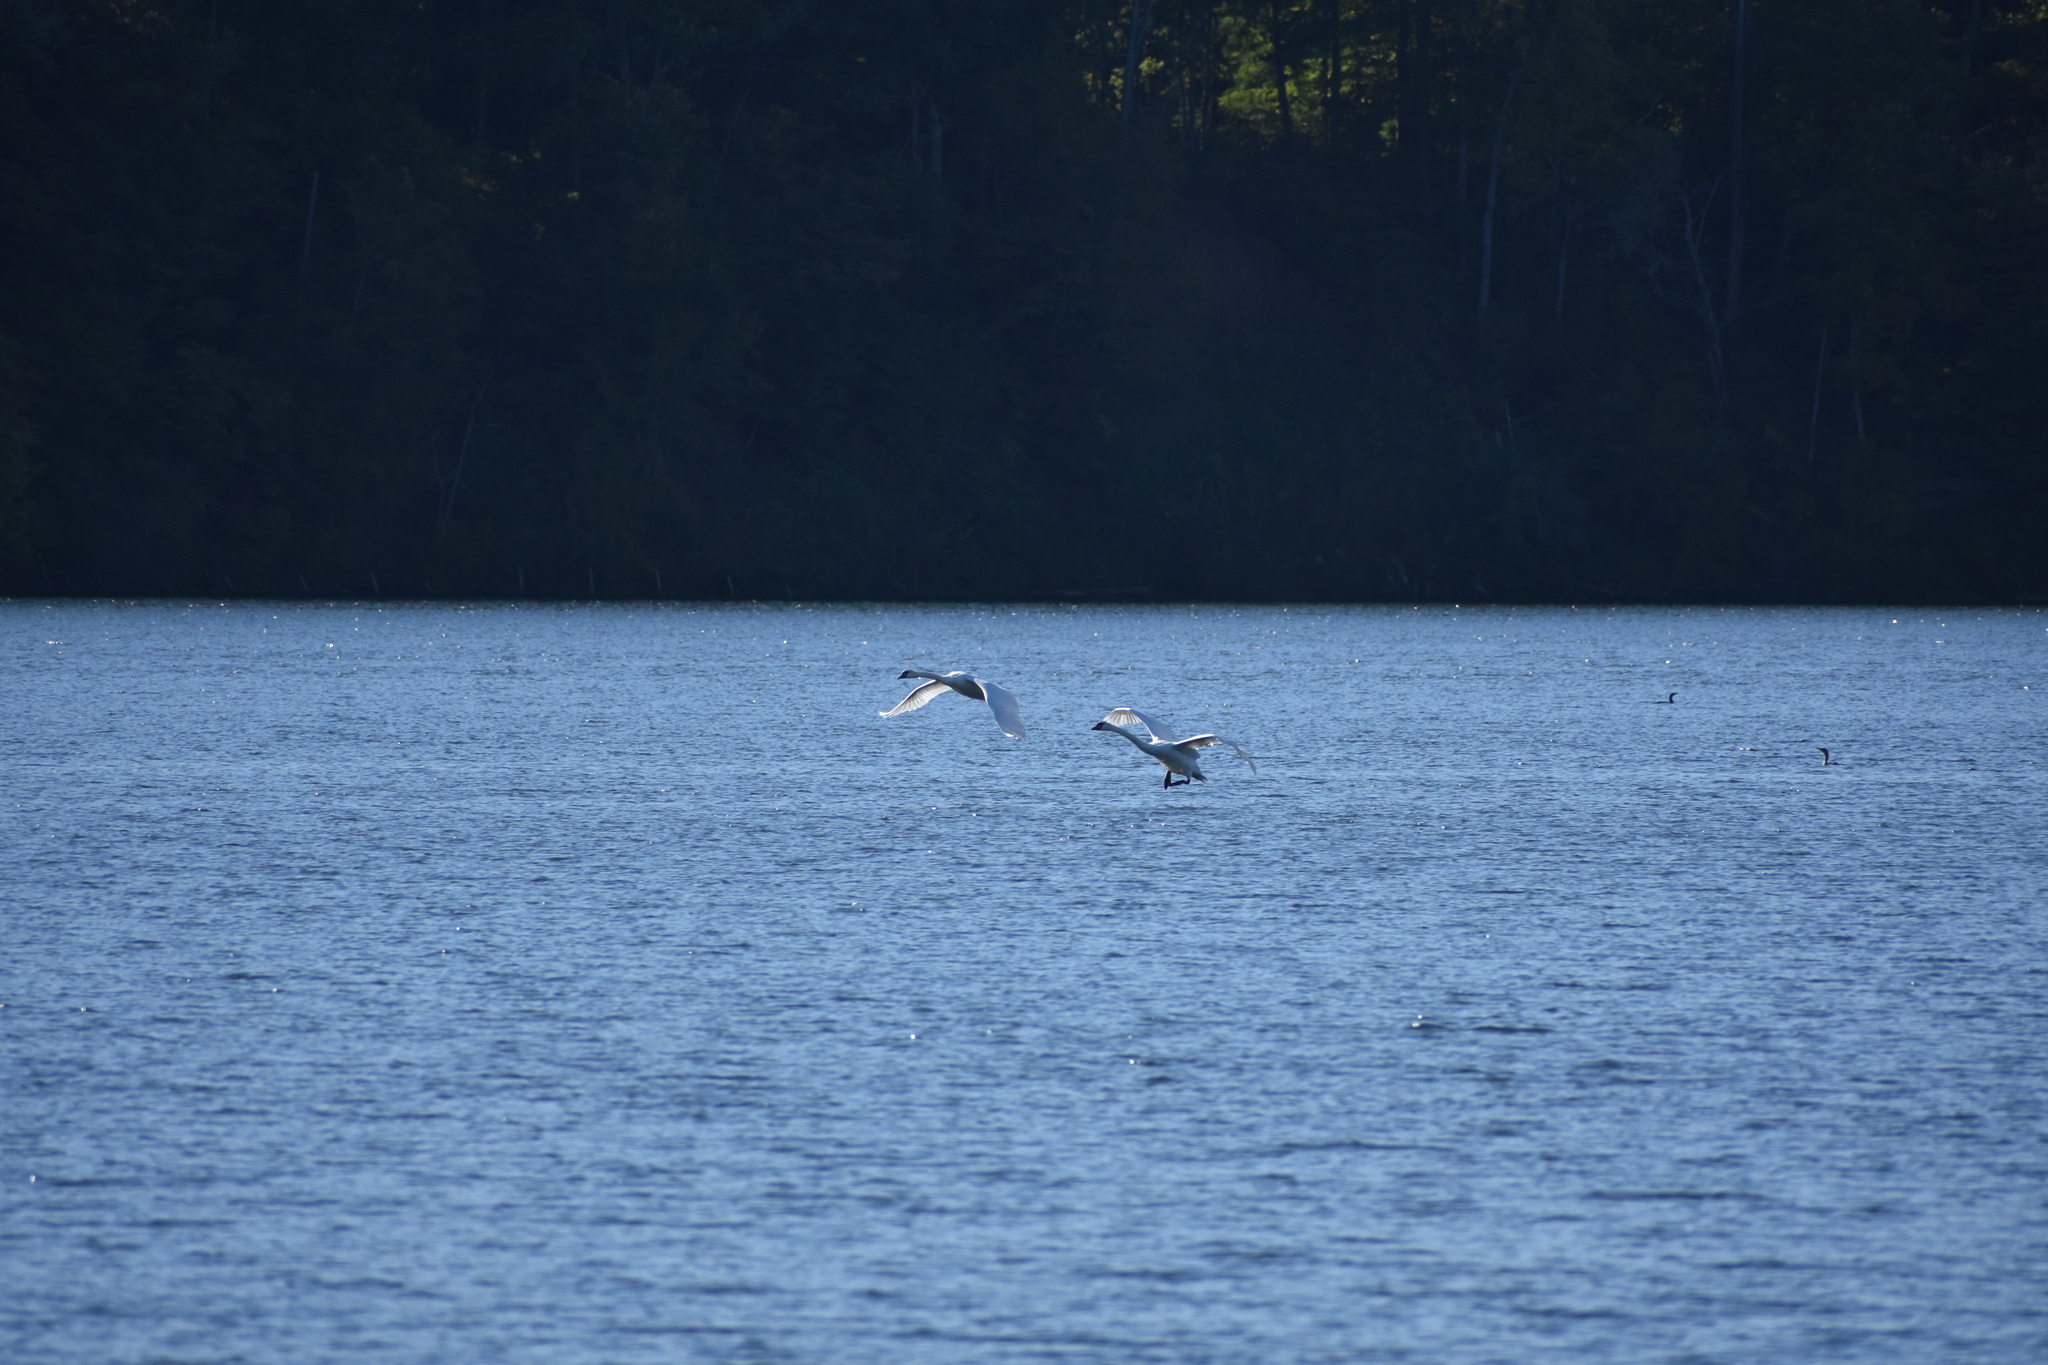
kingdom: Animalia
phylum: Chordata
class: Aves
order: Anseriformes
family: Anatidae
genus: Cygnus
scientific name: Cygnus olor
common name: Mute swan
